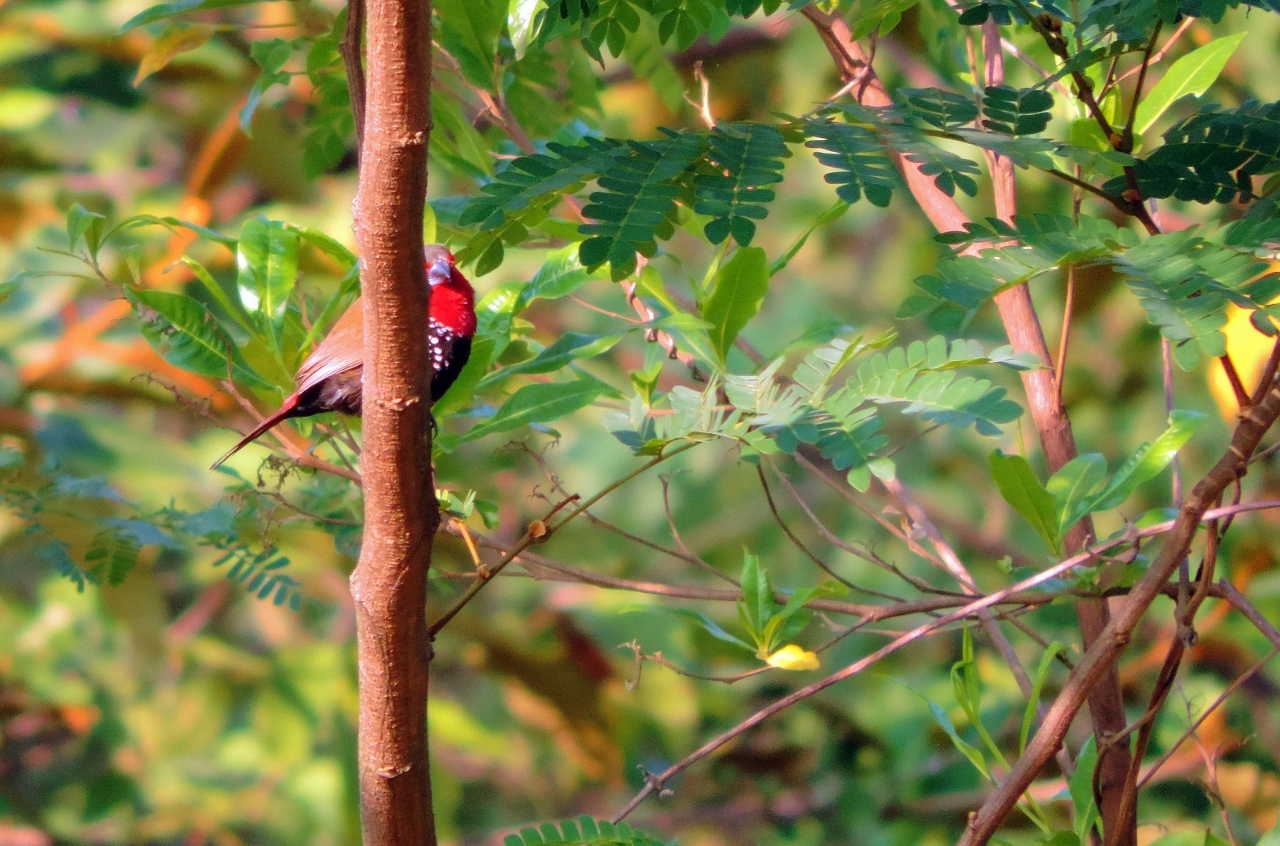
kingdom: Animalia
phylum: Chordata
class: Aves
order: Passeriformes
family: Estrildidae
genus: Hypargos
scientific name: Hypargos niveoguttatus
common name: Red-throated twinspot
